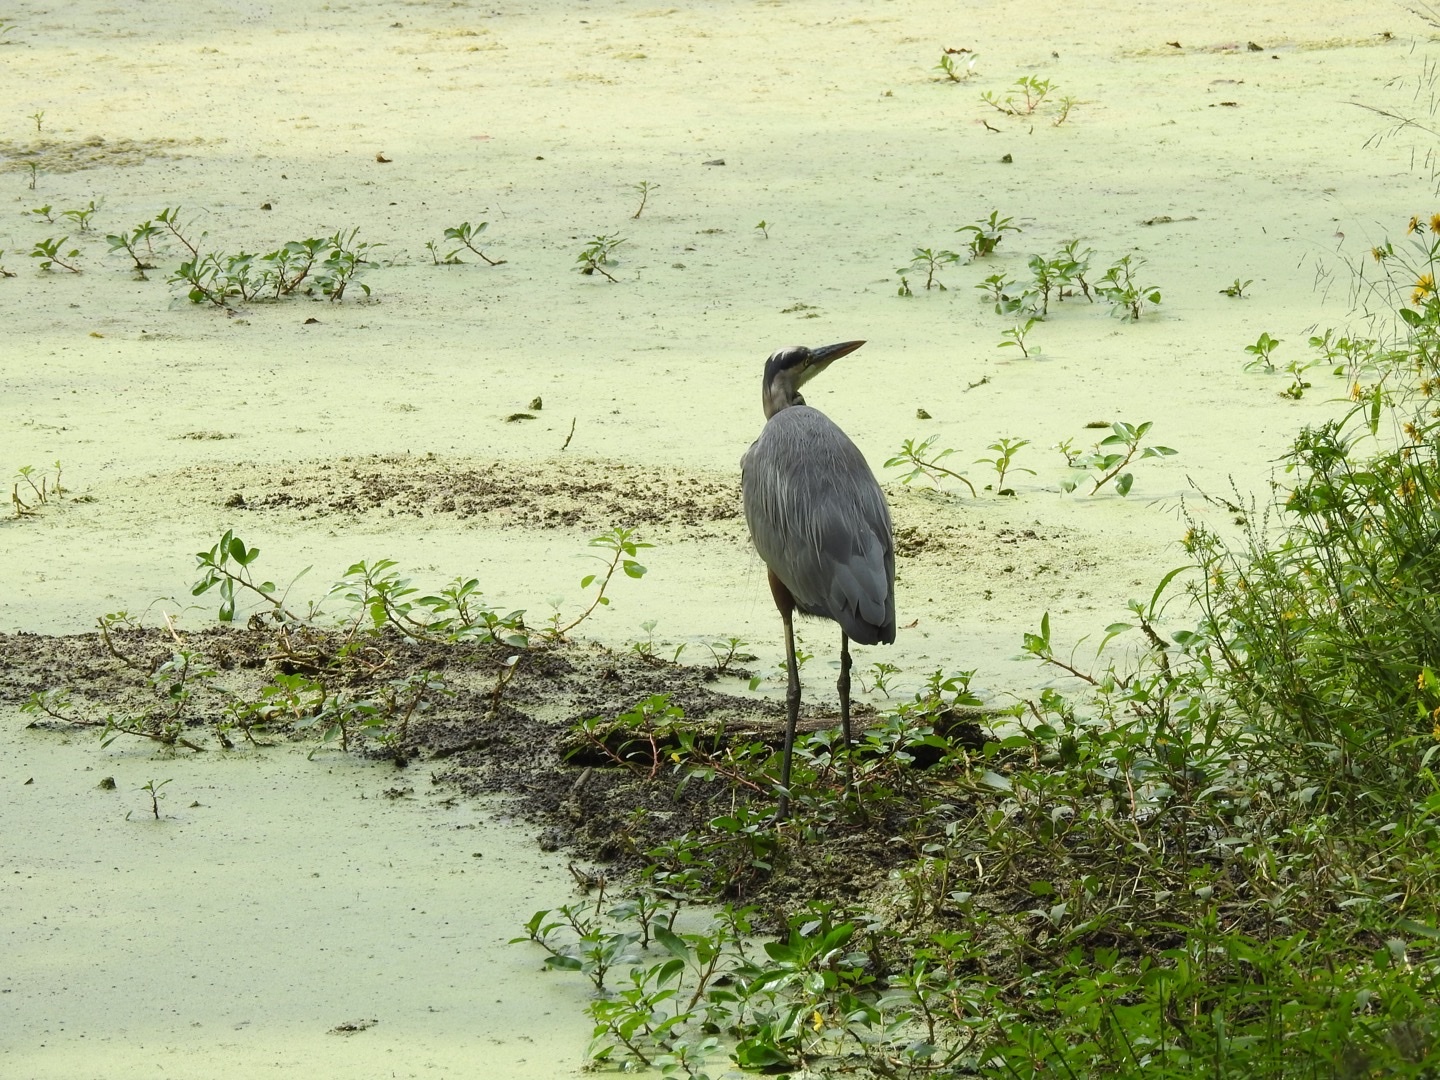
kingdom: Animalia
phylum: Chordata
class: Aves
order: Pelecaniformes
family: Ardeidae
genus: Ardea
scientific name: Ardea herodias
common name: Great blue heron
